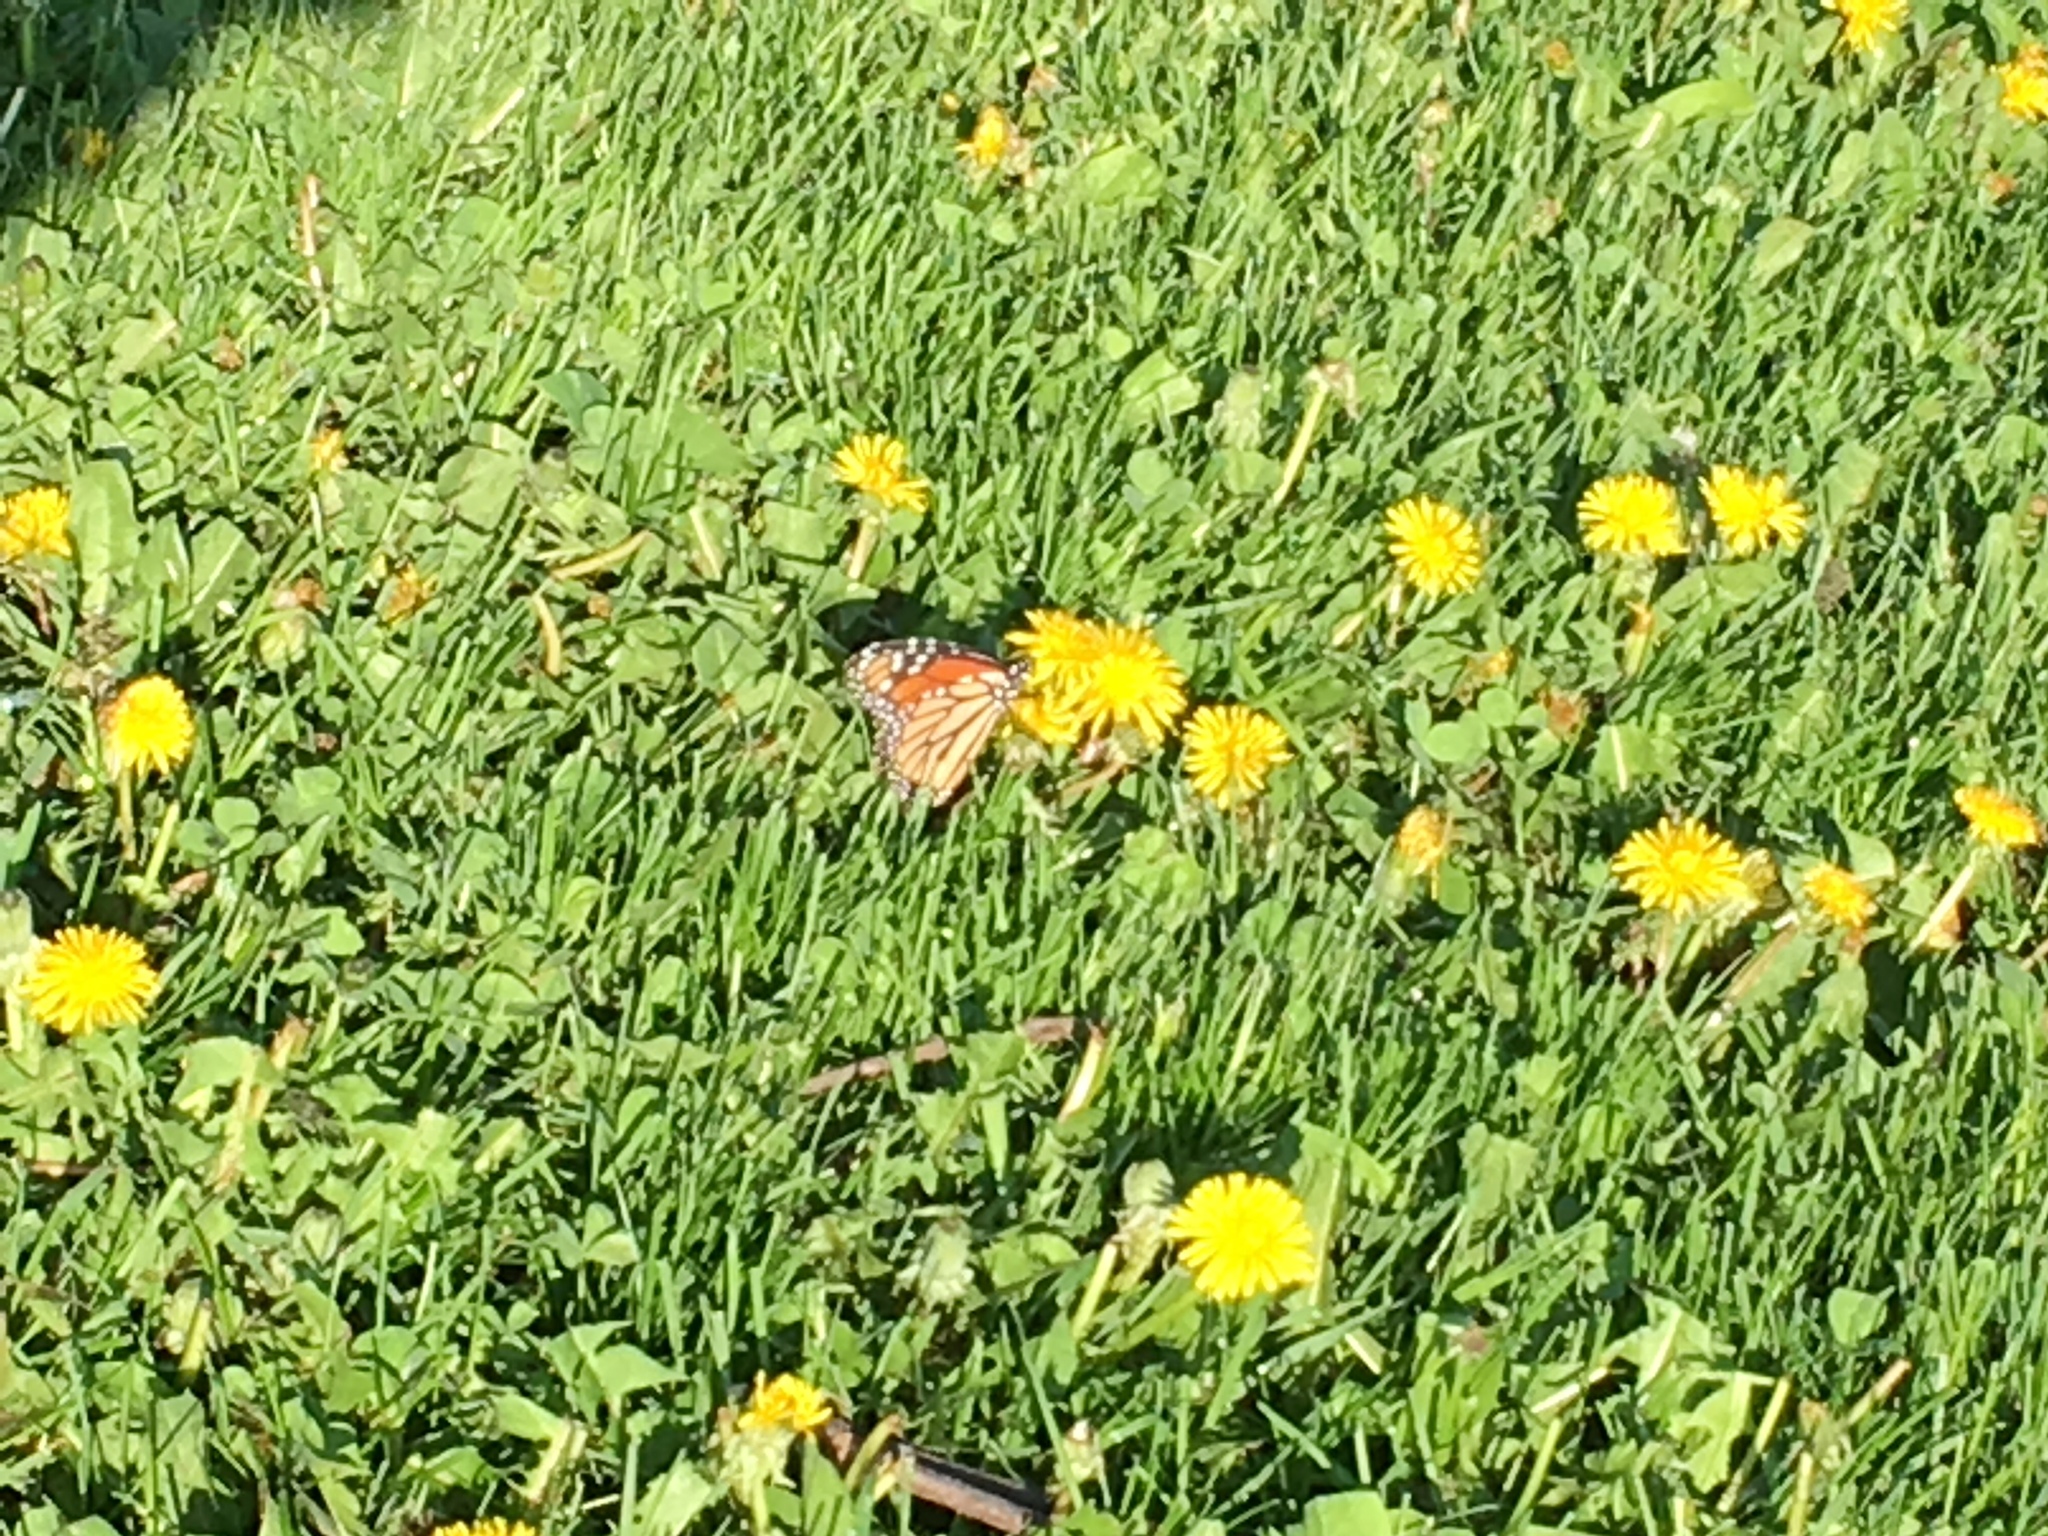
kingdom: Animalia
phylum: Arthropoda
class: Insecta
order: Lepidoptera
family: Nymphalidae
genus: Danaus
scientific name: Danaus plexippus
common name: Monarch
